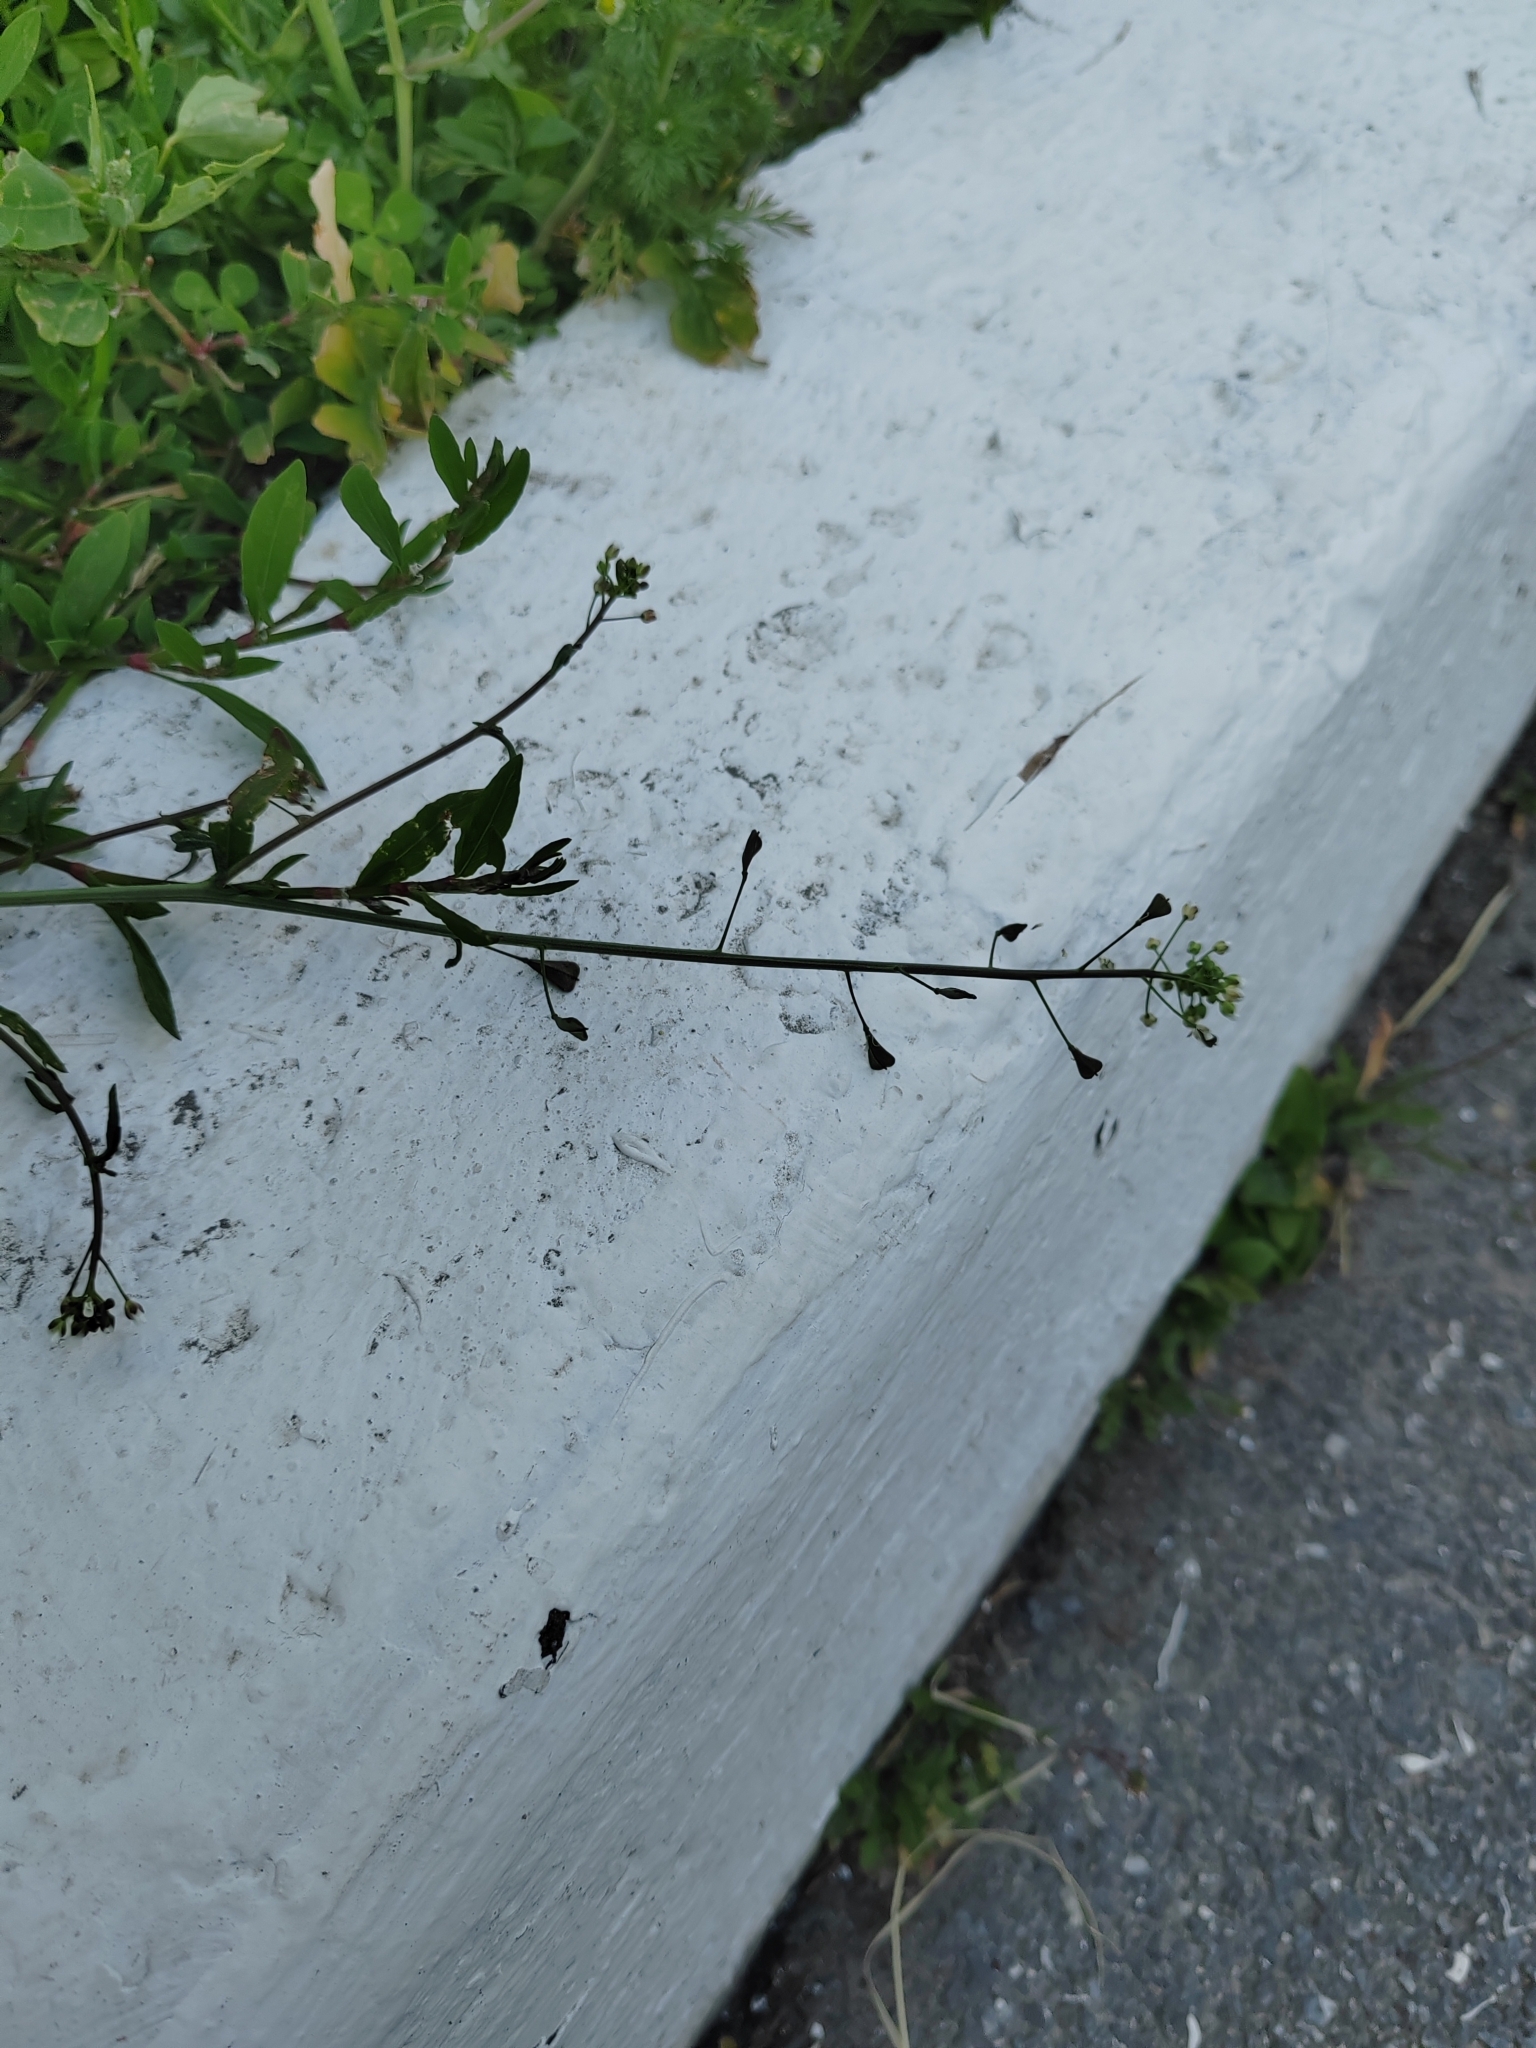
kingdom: Plantae
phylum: Tracheophyta
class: Magnoliopsida
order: Brassicales
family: Brassicaceae
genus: Capsella
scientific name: Capsella bursa-pastoris
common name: Shepherd's purse
